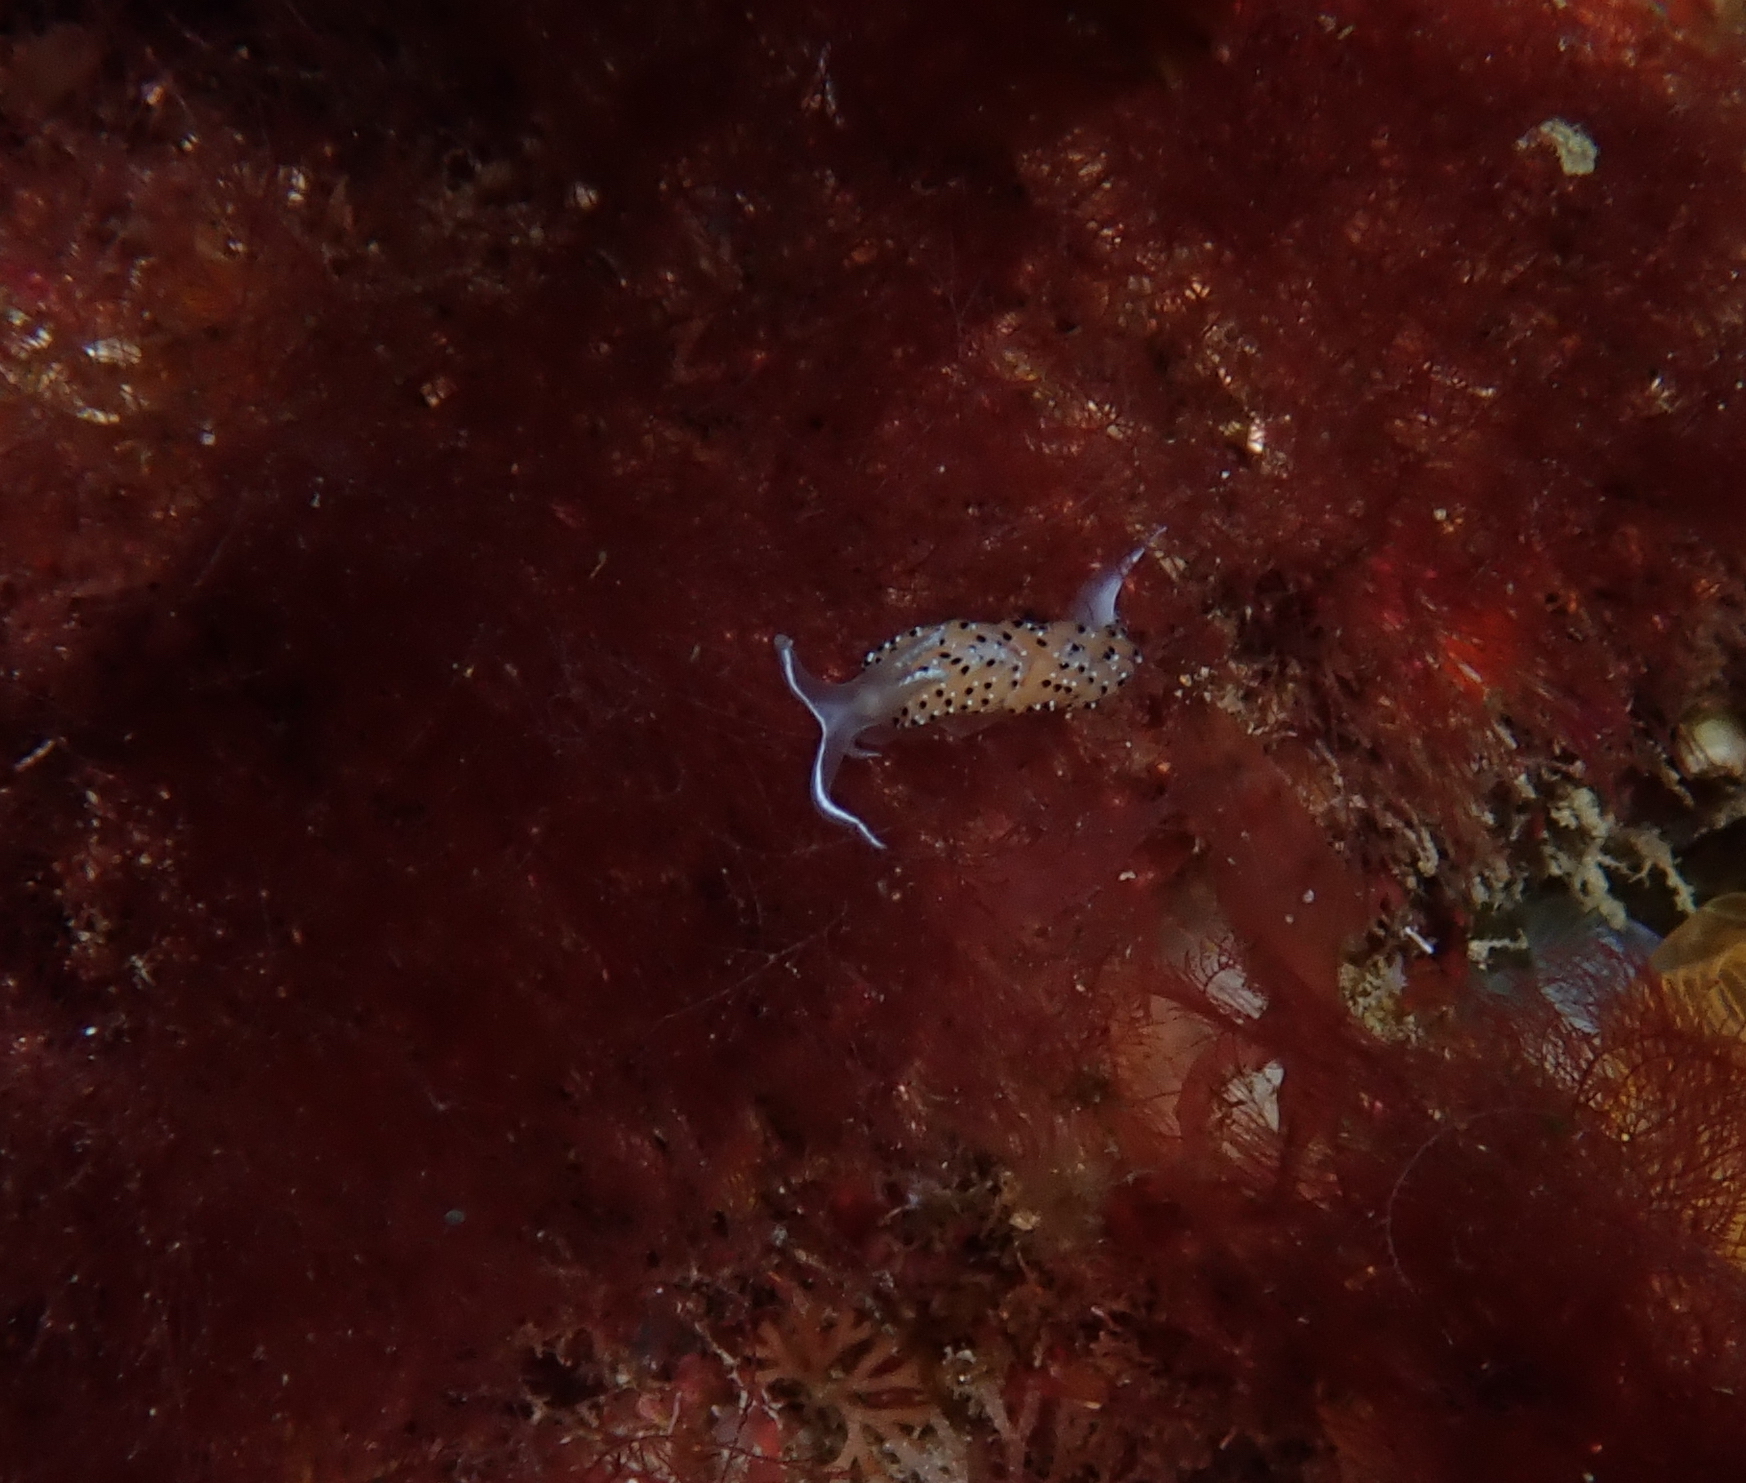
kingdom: Animalia
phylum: Mollusca
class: Gastropoda
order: Nudibranchia
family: Facelinidae
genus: Caloria
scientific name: Caloria elegans
